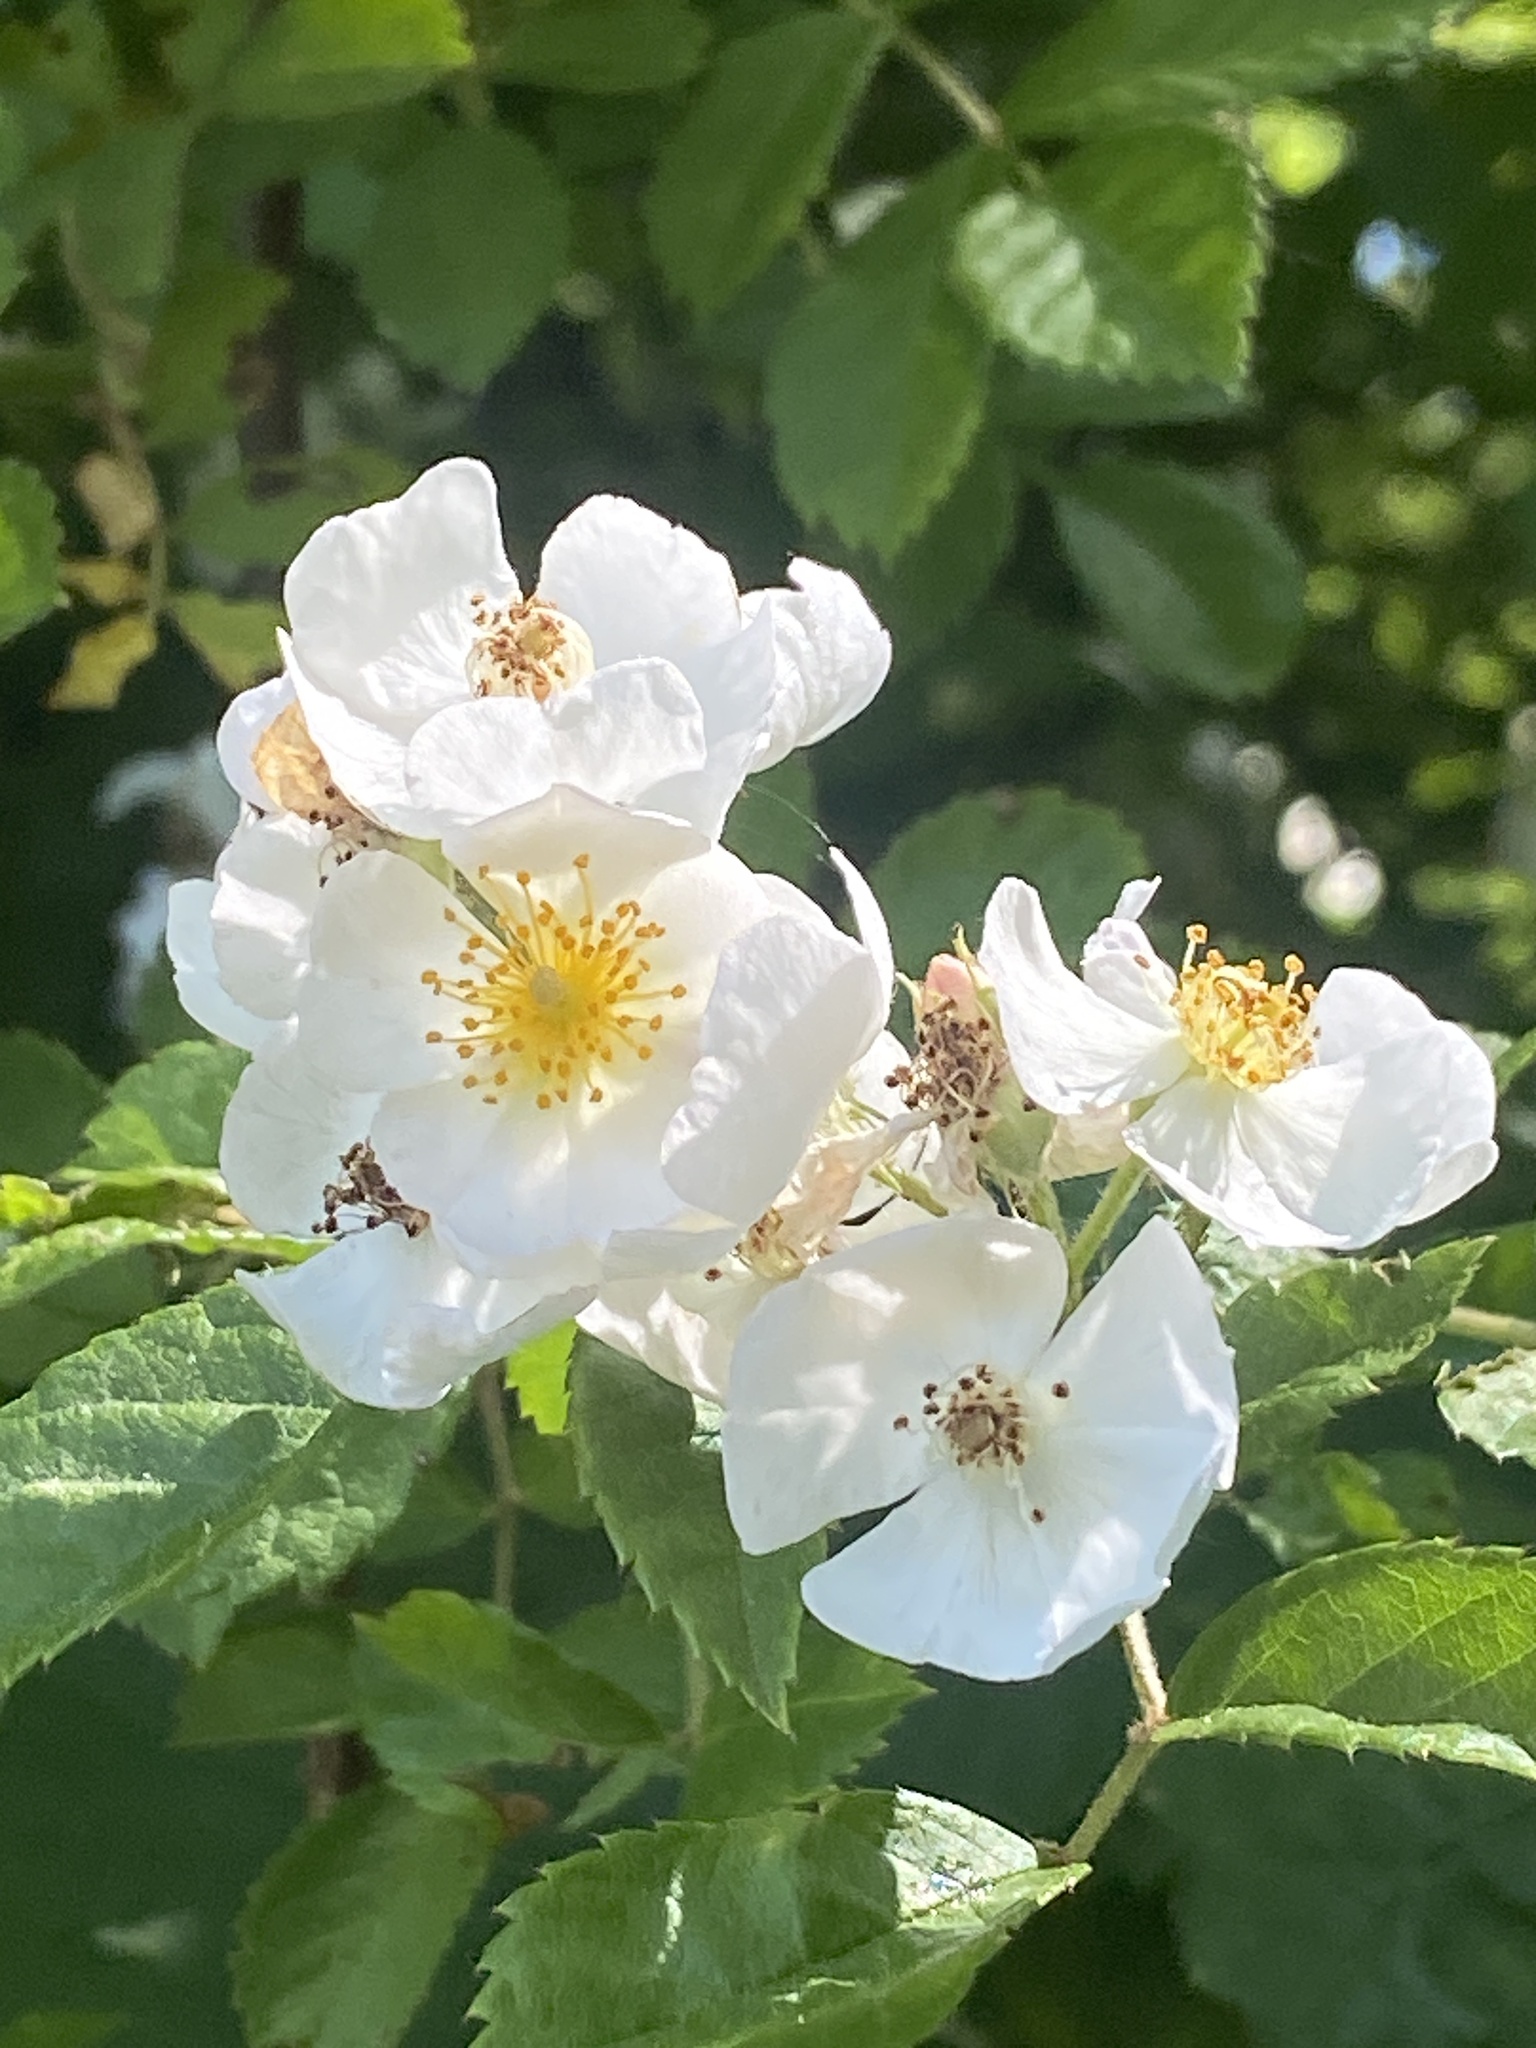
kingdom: Plantae
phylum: Tracheophyta
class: Magnoliopsida
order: Rosales
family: Rosaceae
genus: Rosa
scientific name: Rosa multiflora
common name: Multiflora rose
